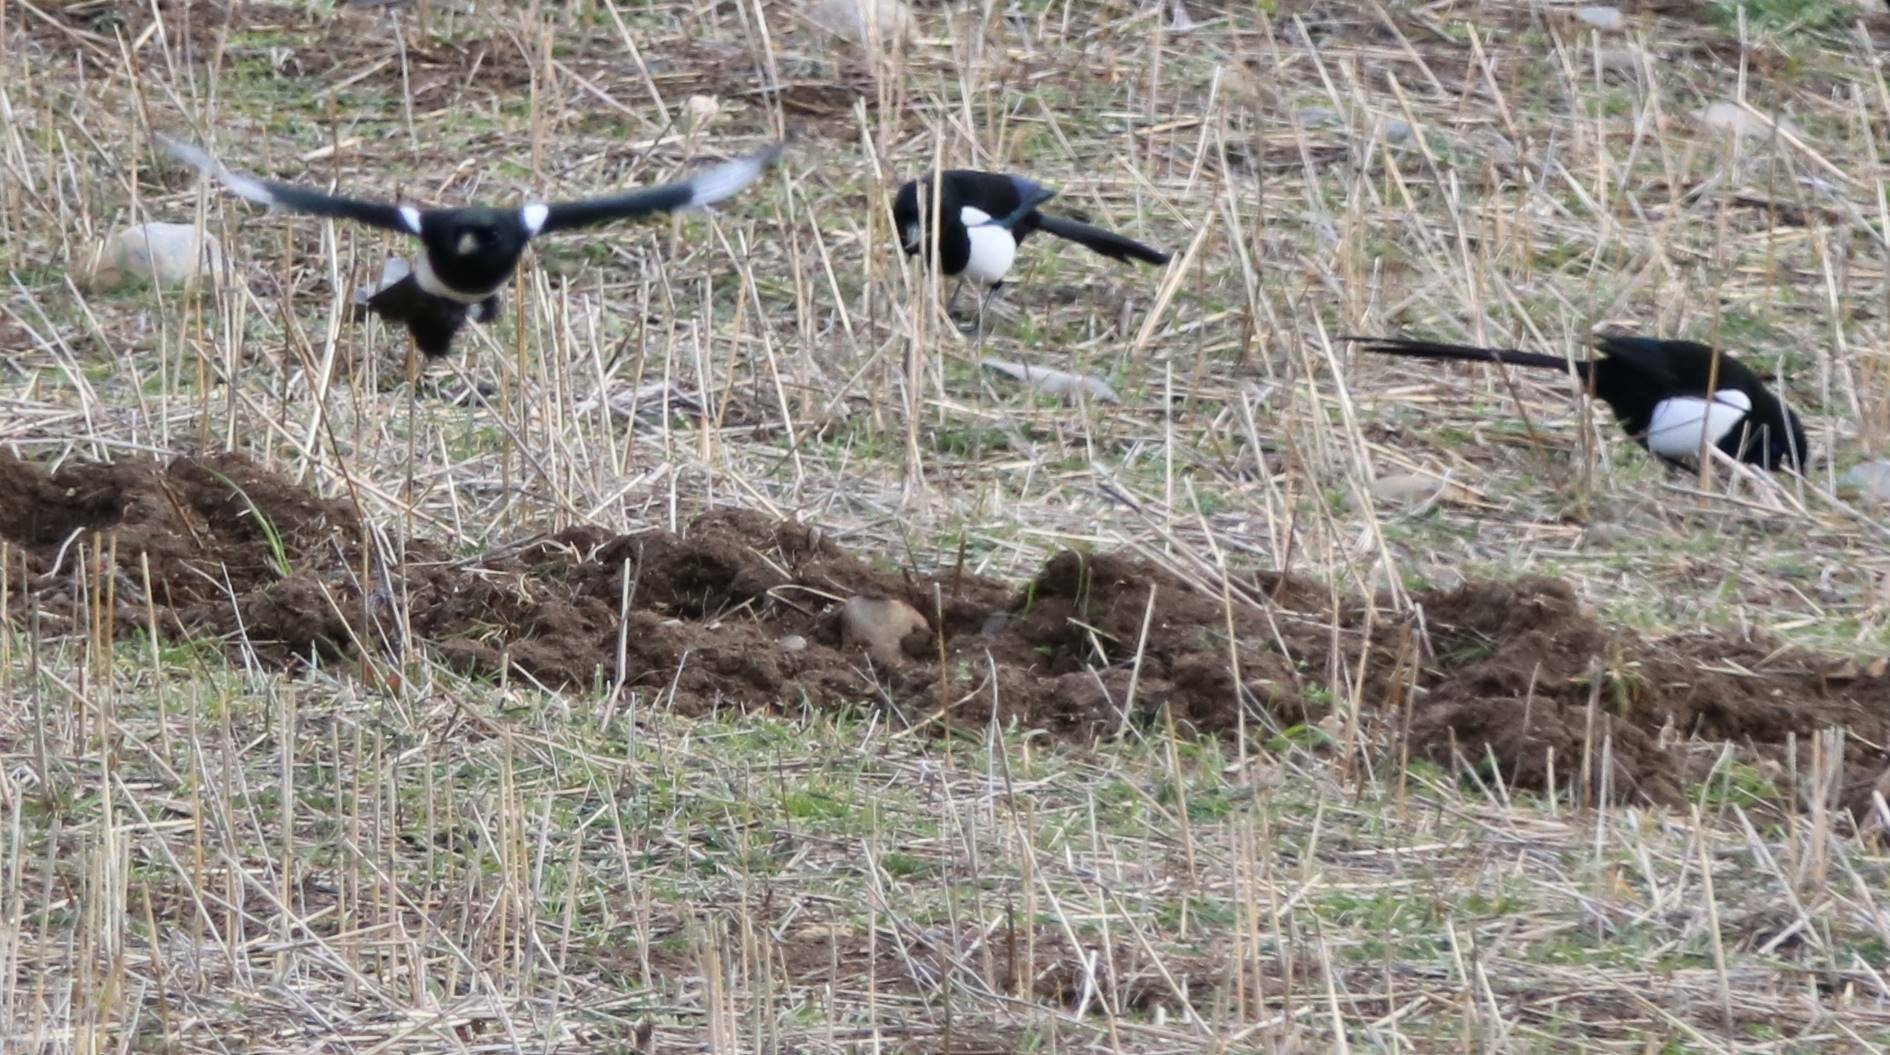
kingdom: Animalia
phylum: Chordata
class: Aves
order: Passeriformes
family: Corvidae
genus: Pica
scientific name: Pica mauritanica
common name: Maghreb magpie
